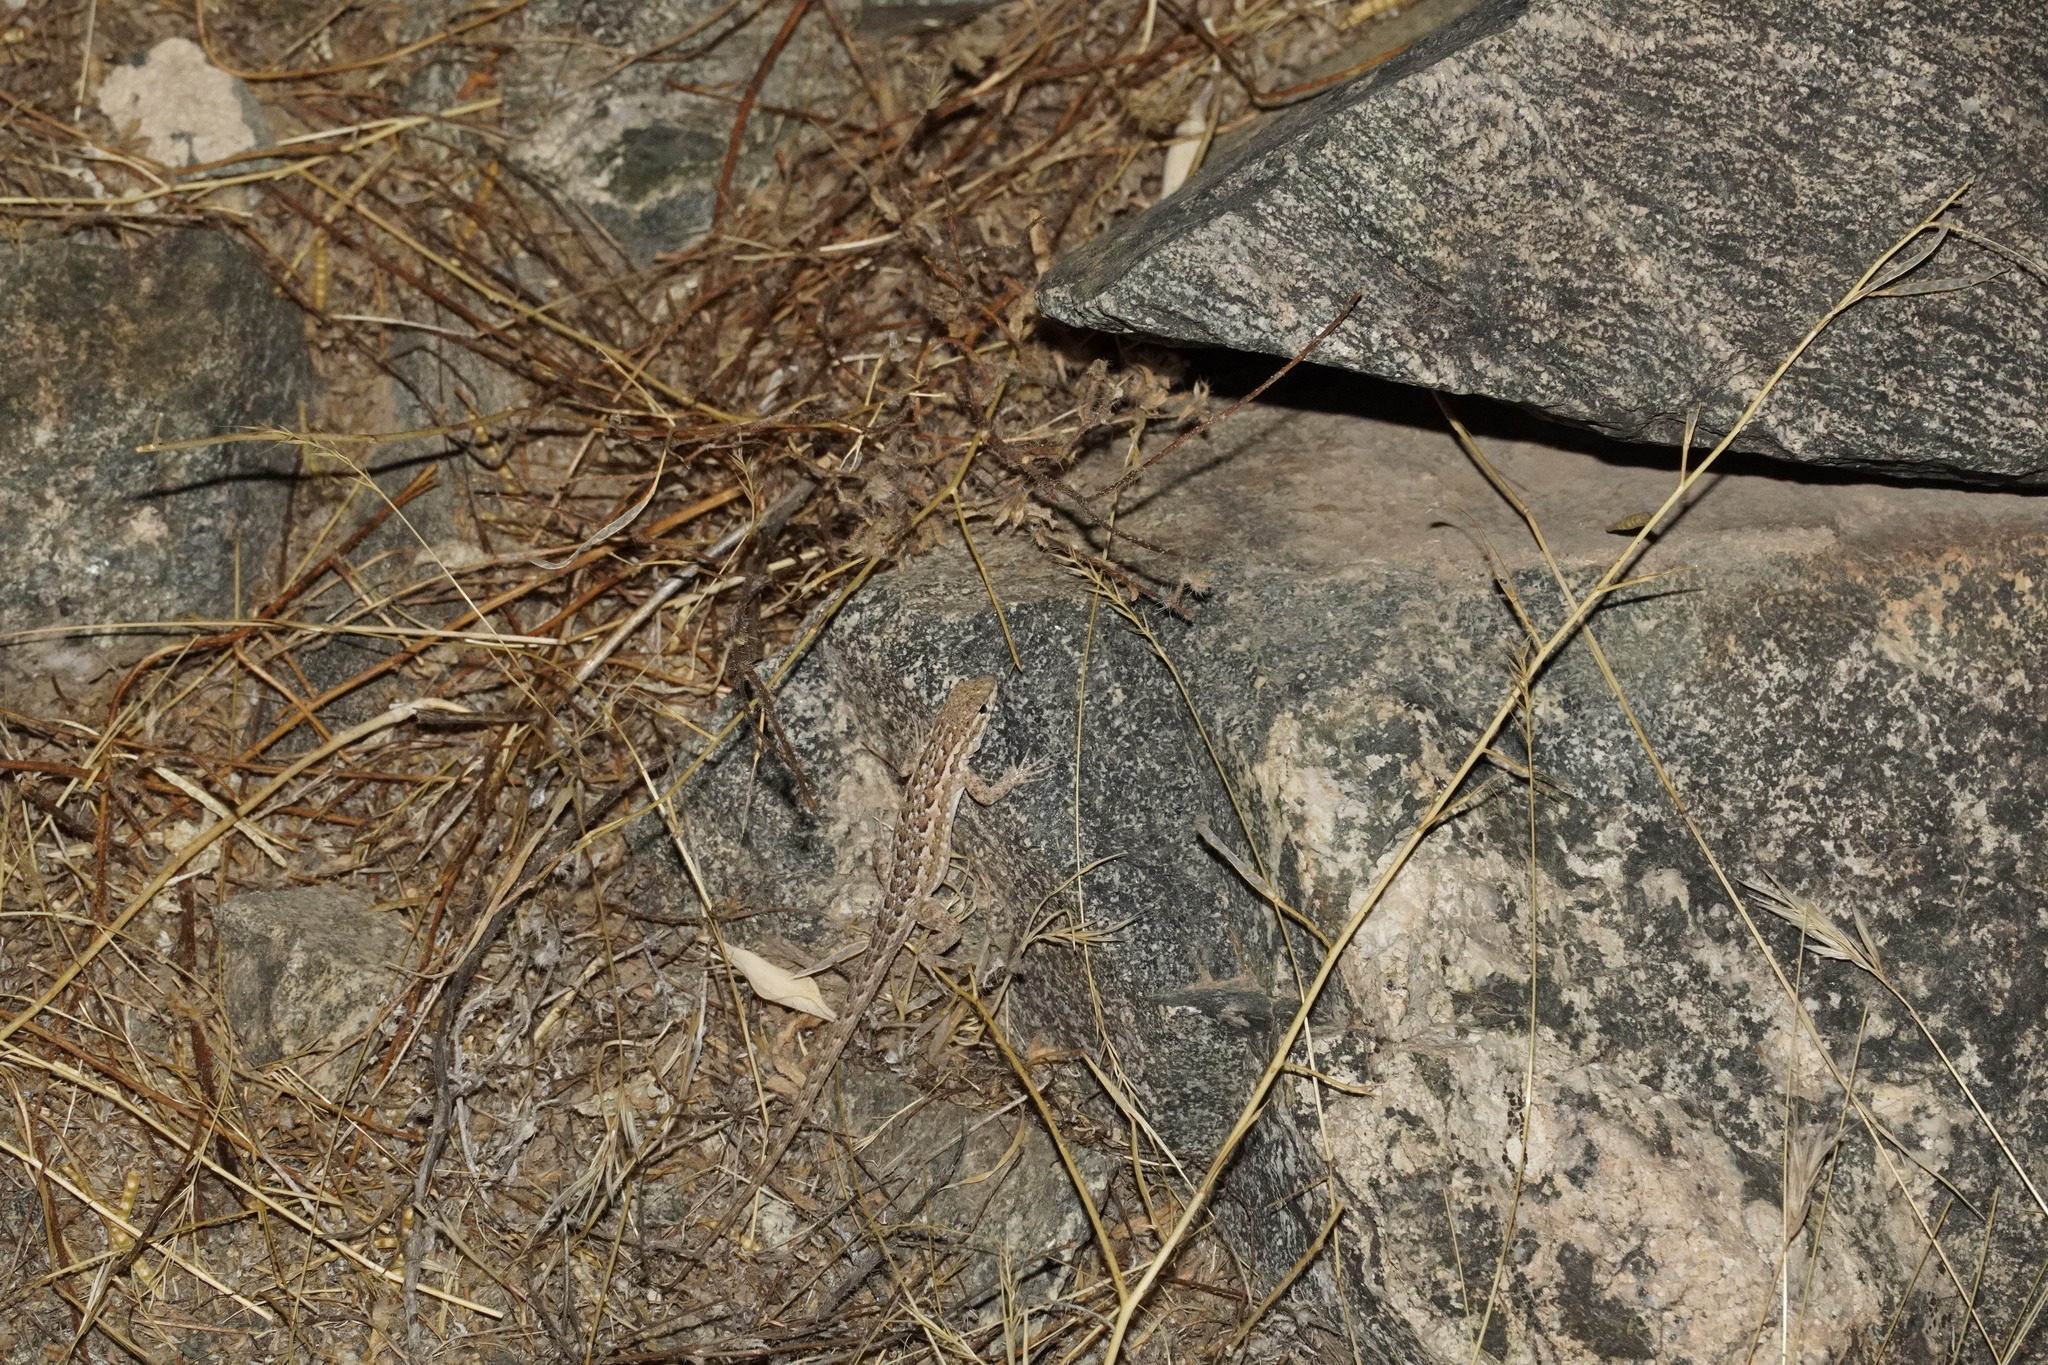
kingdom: Animalia
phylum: Chordata
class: Squamata
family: Phrynosomatidae
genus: Uta
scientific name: Uta stansburiana
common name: Side-blotched lizard
